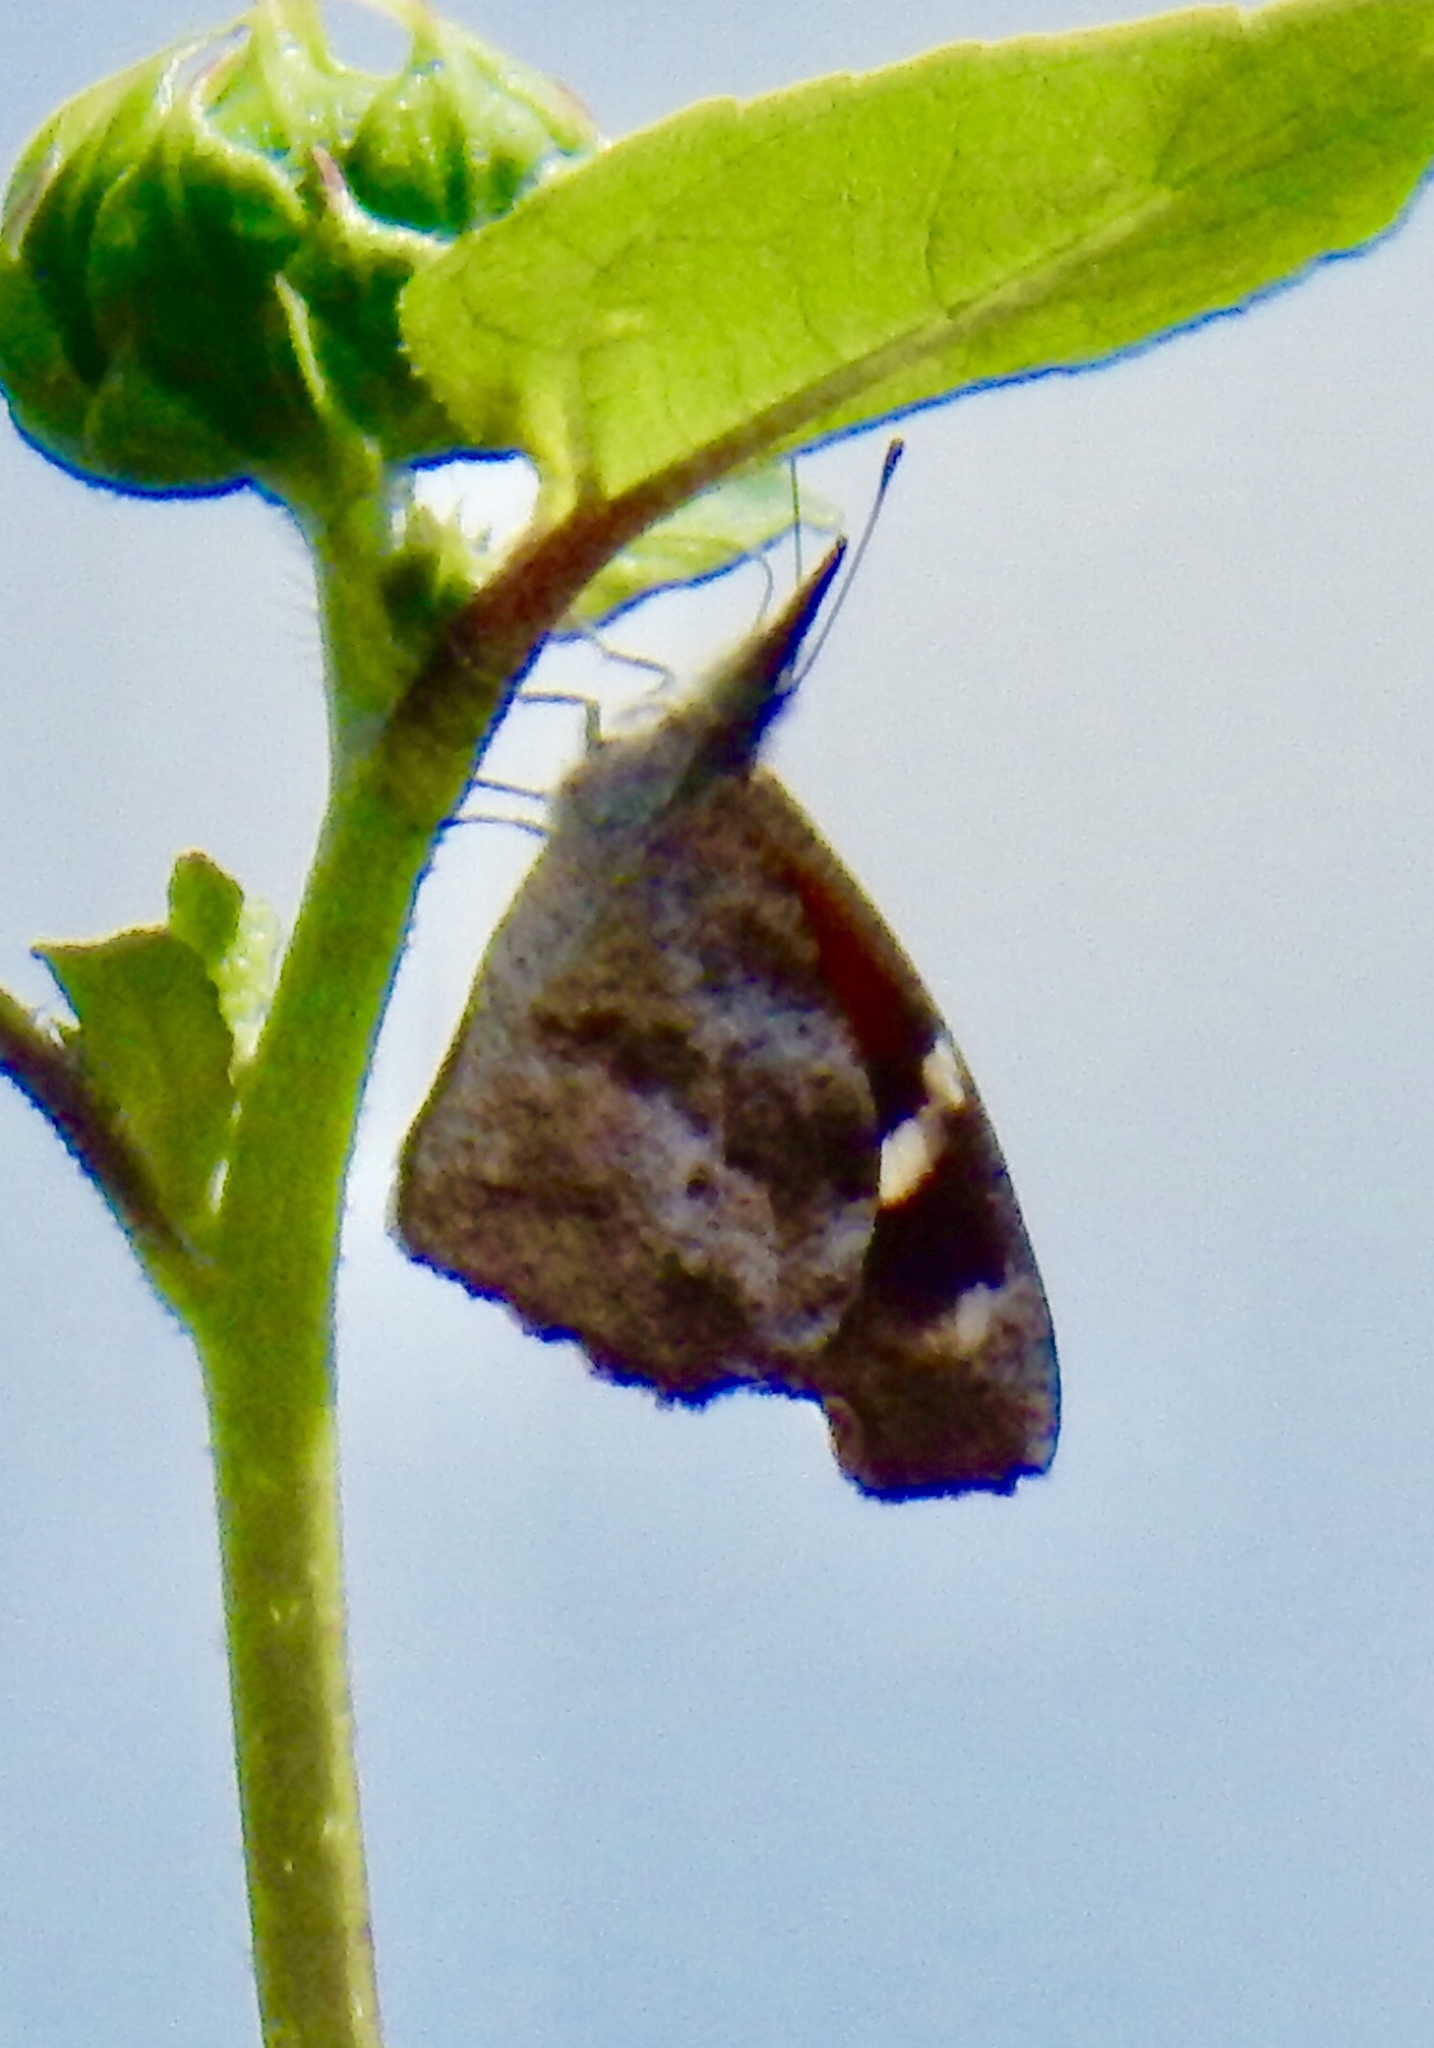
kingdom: Animalia
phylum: Arthropoda
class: Insecta
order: Lepidoptera
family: Nymphalidae
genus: Libytheana
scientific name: Libytheana carinenta
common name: American snout
